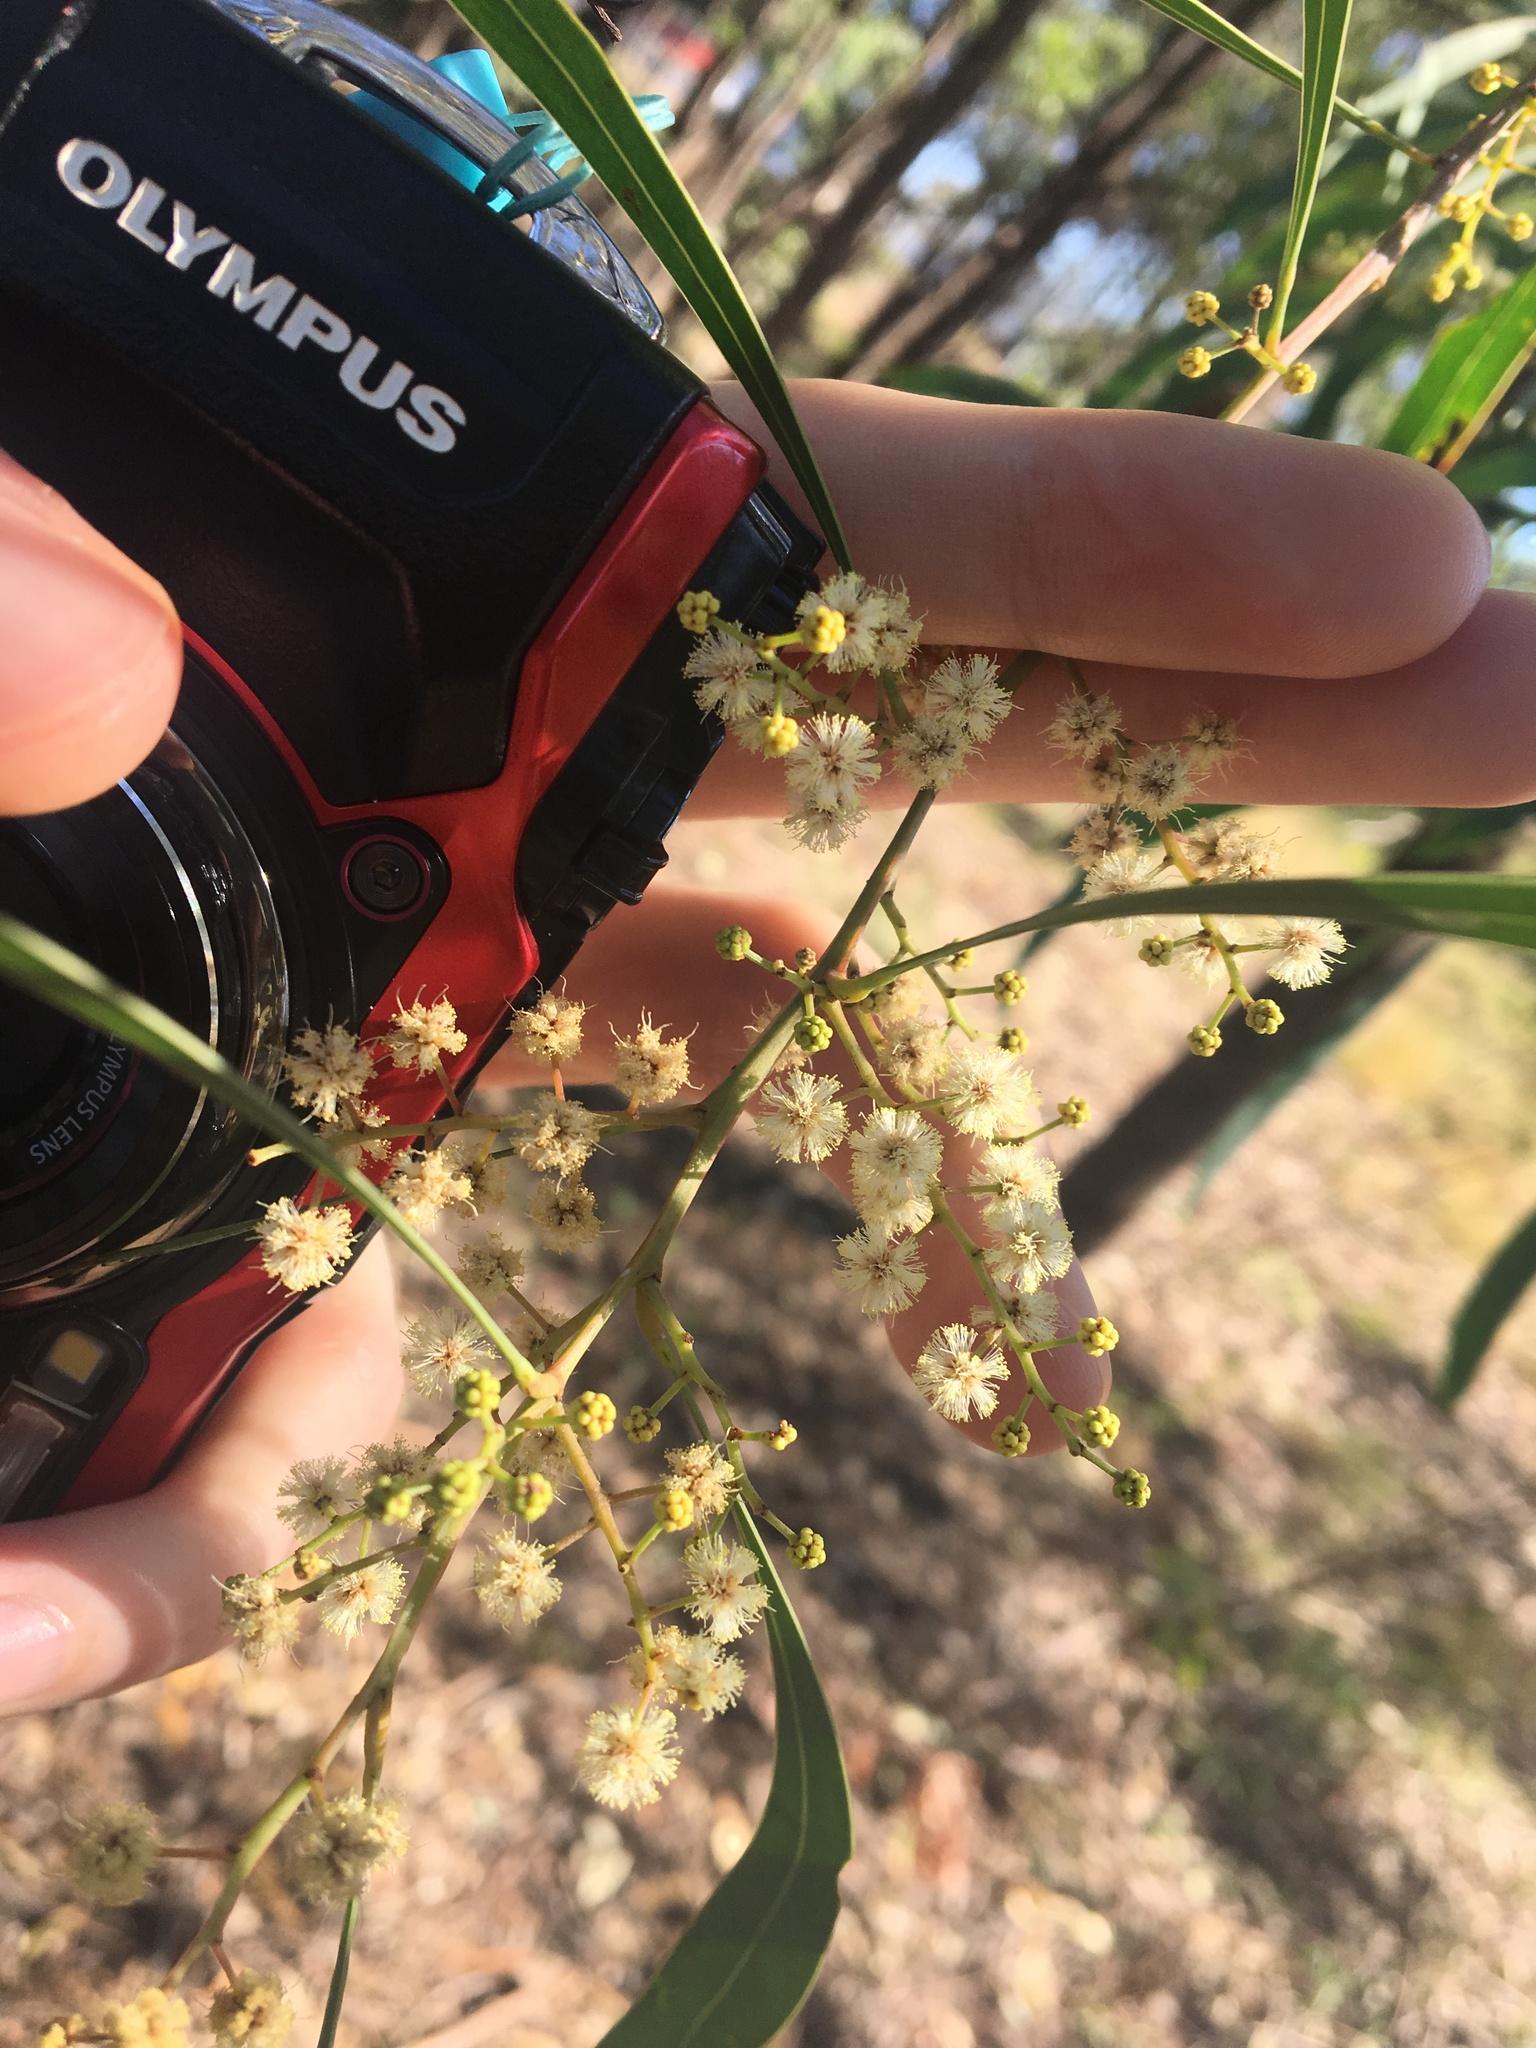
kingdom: Plantae
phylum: Tracheophyta
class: Magnoliopsida
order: Fabales
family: Fabaceae
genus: Acacia
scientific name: Acacia falcata
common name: Burra acacia
